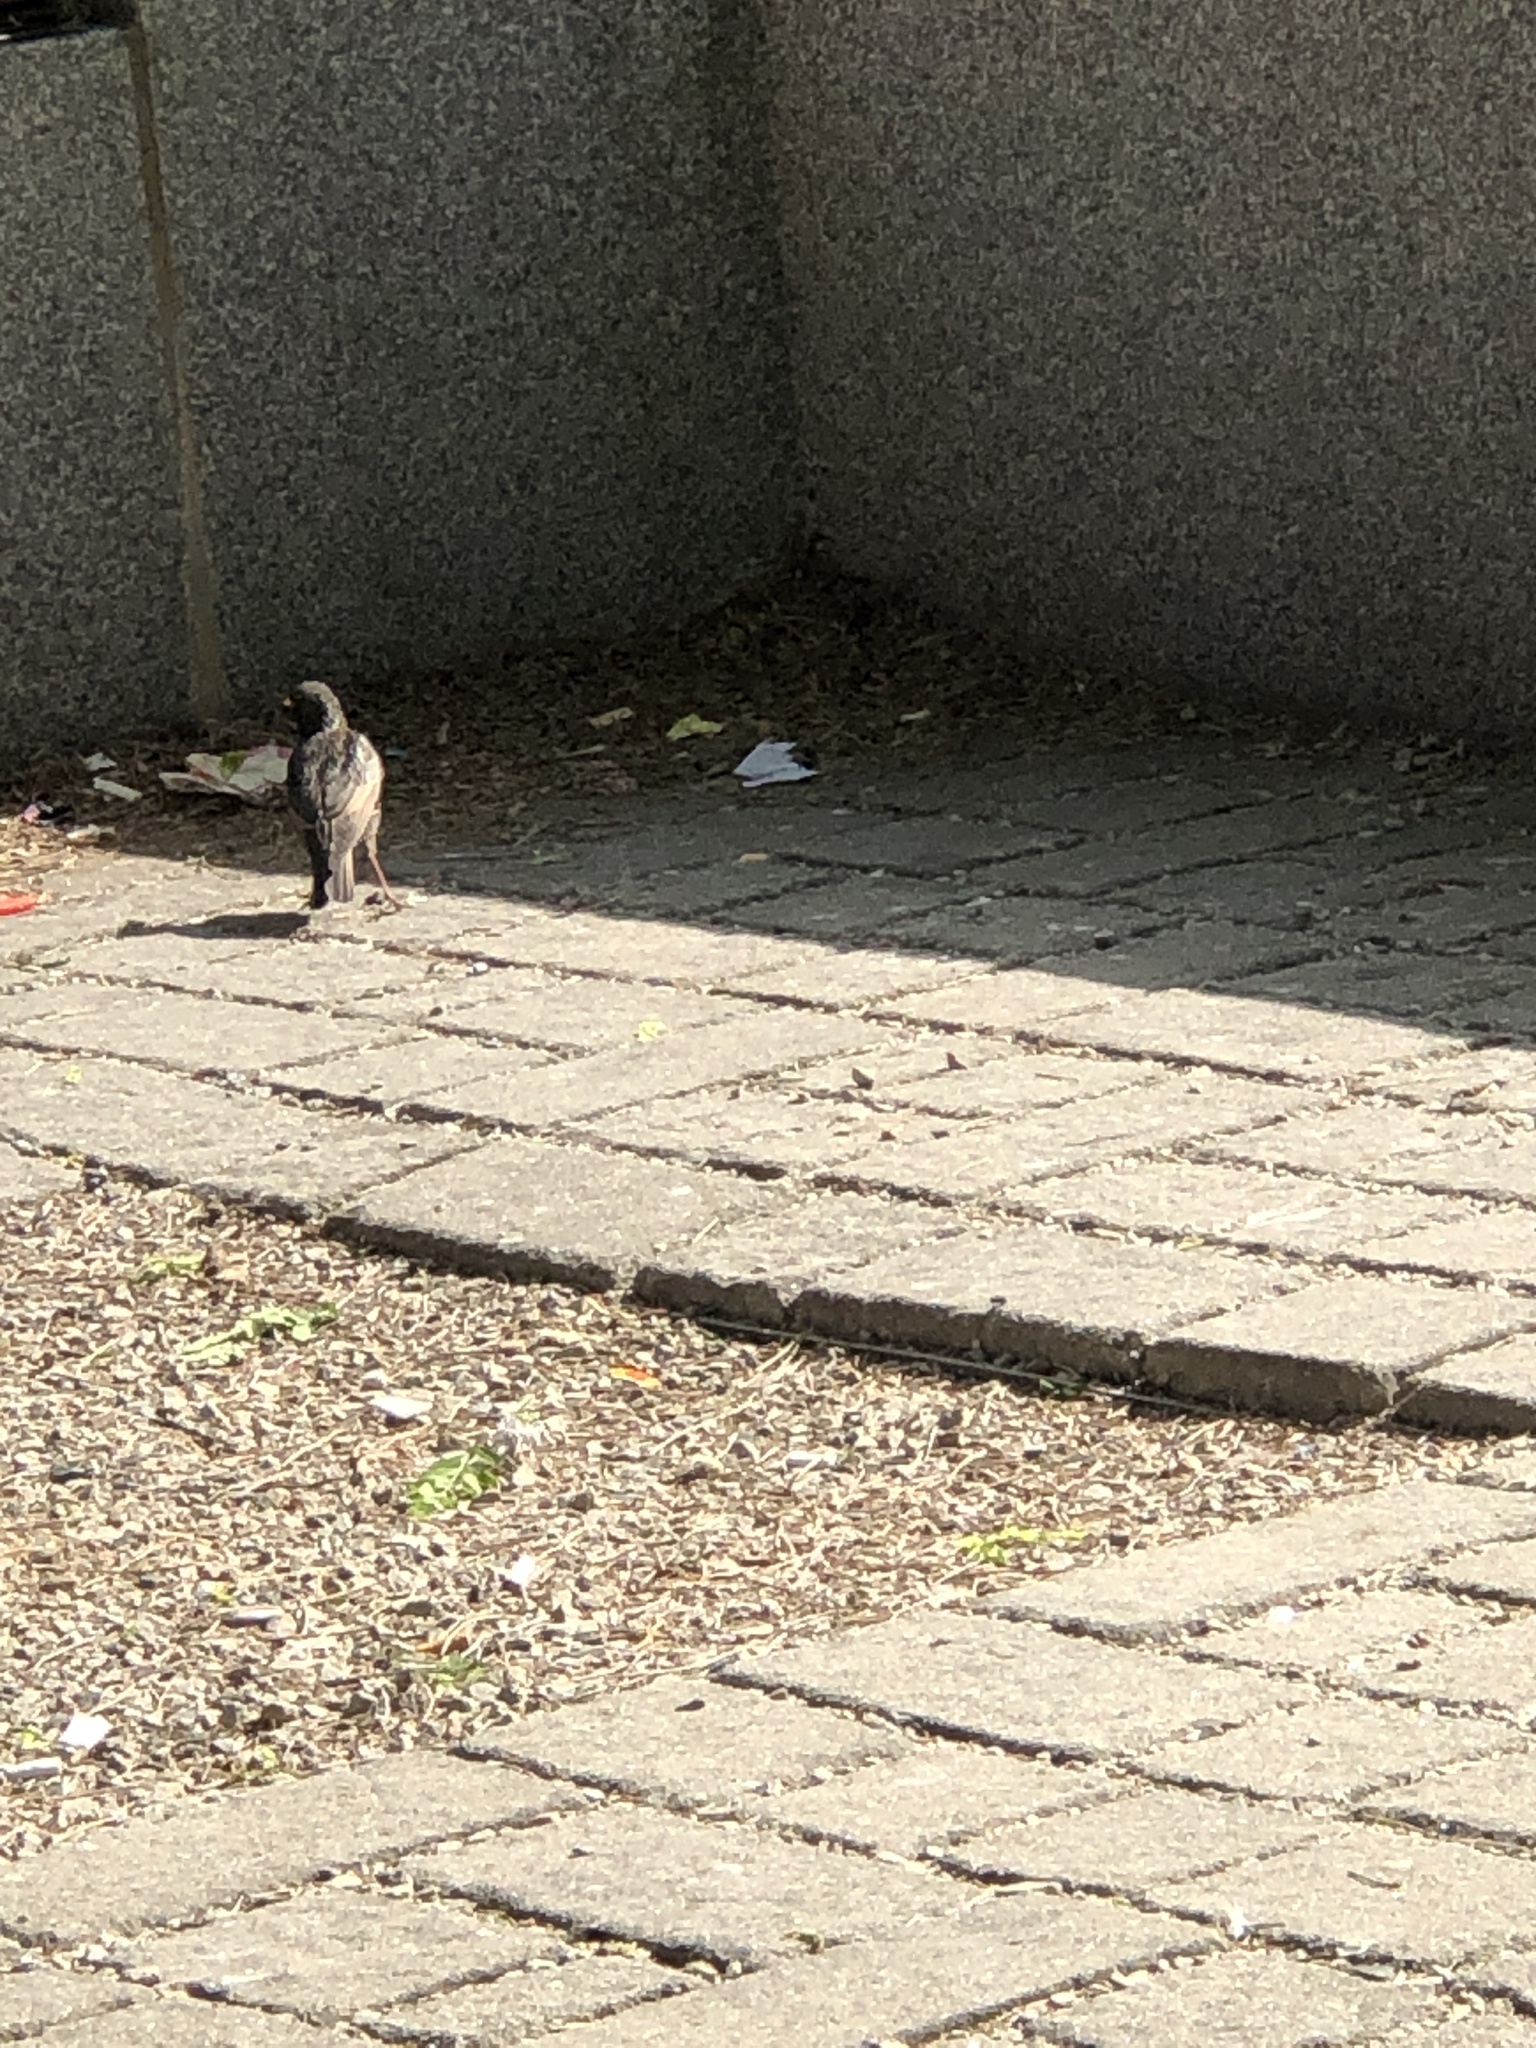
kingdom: Animalia
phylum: Chordata
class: Aves
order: Passeriformes
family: Sturnidae
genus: Sturnus
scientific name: Sturnus vulgaris
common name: Common starling
